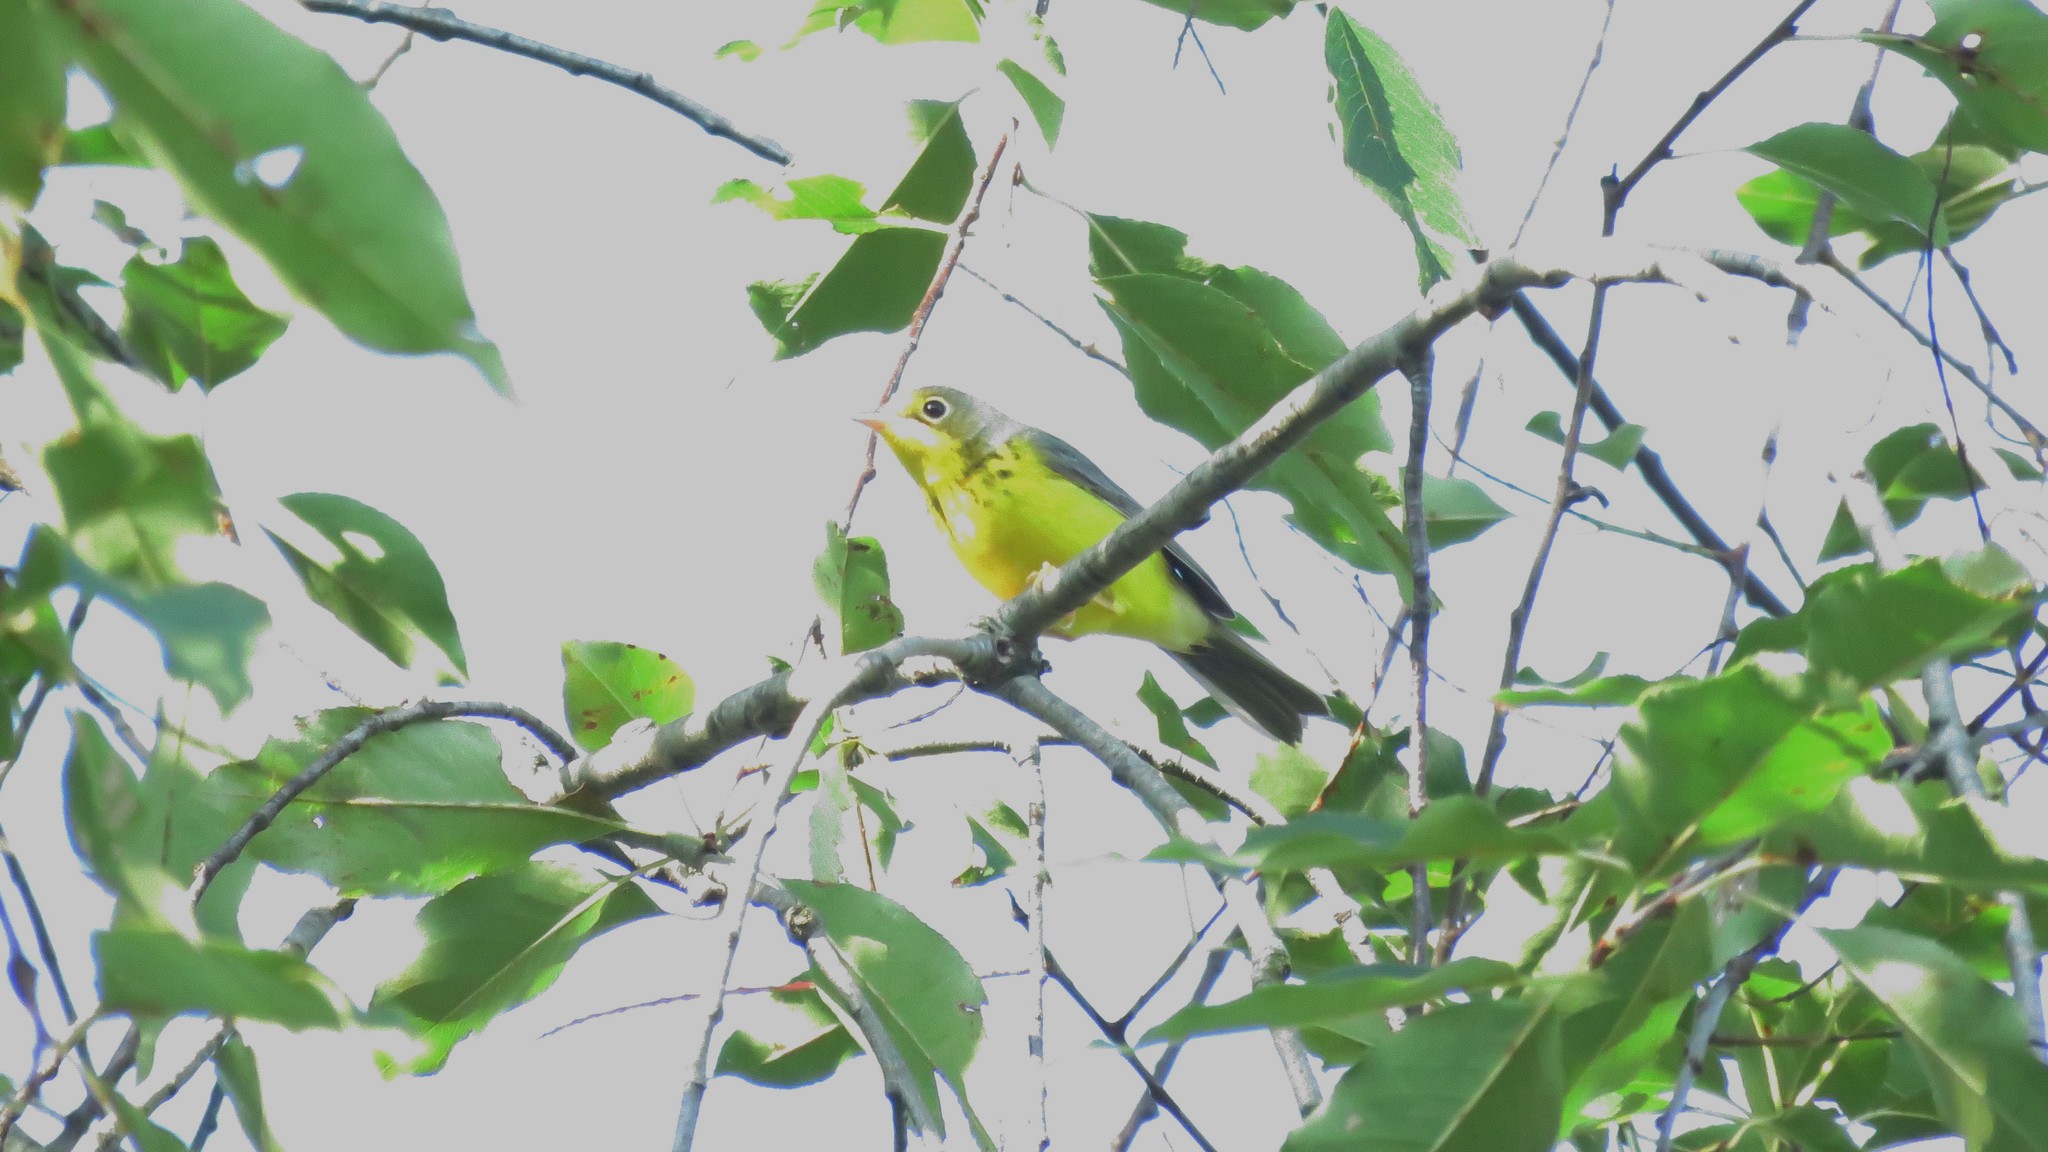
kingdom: Animalia
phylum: Chordata
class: Aves
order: Passeriformes
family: Parulidae
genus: Cardellina
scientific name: Cardellina canadensis
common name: Canada warbler
